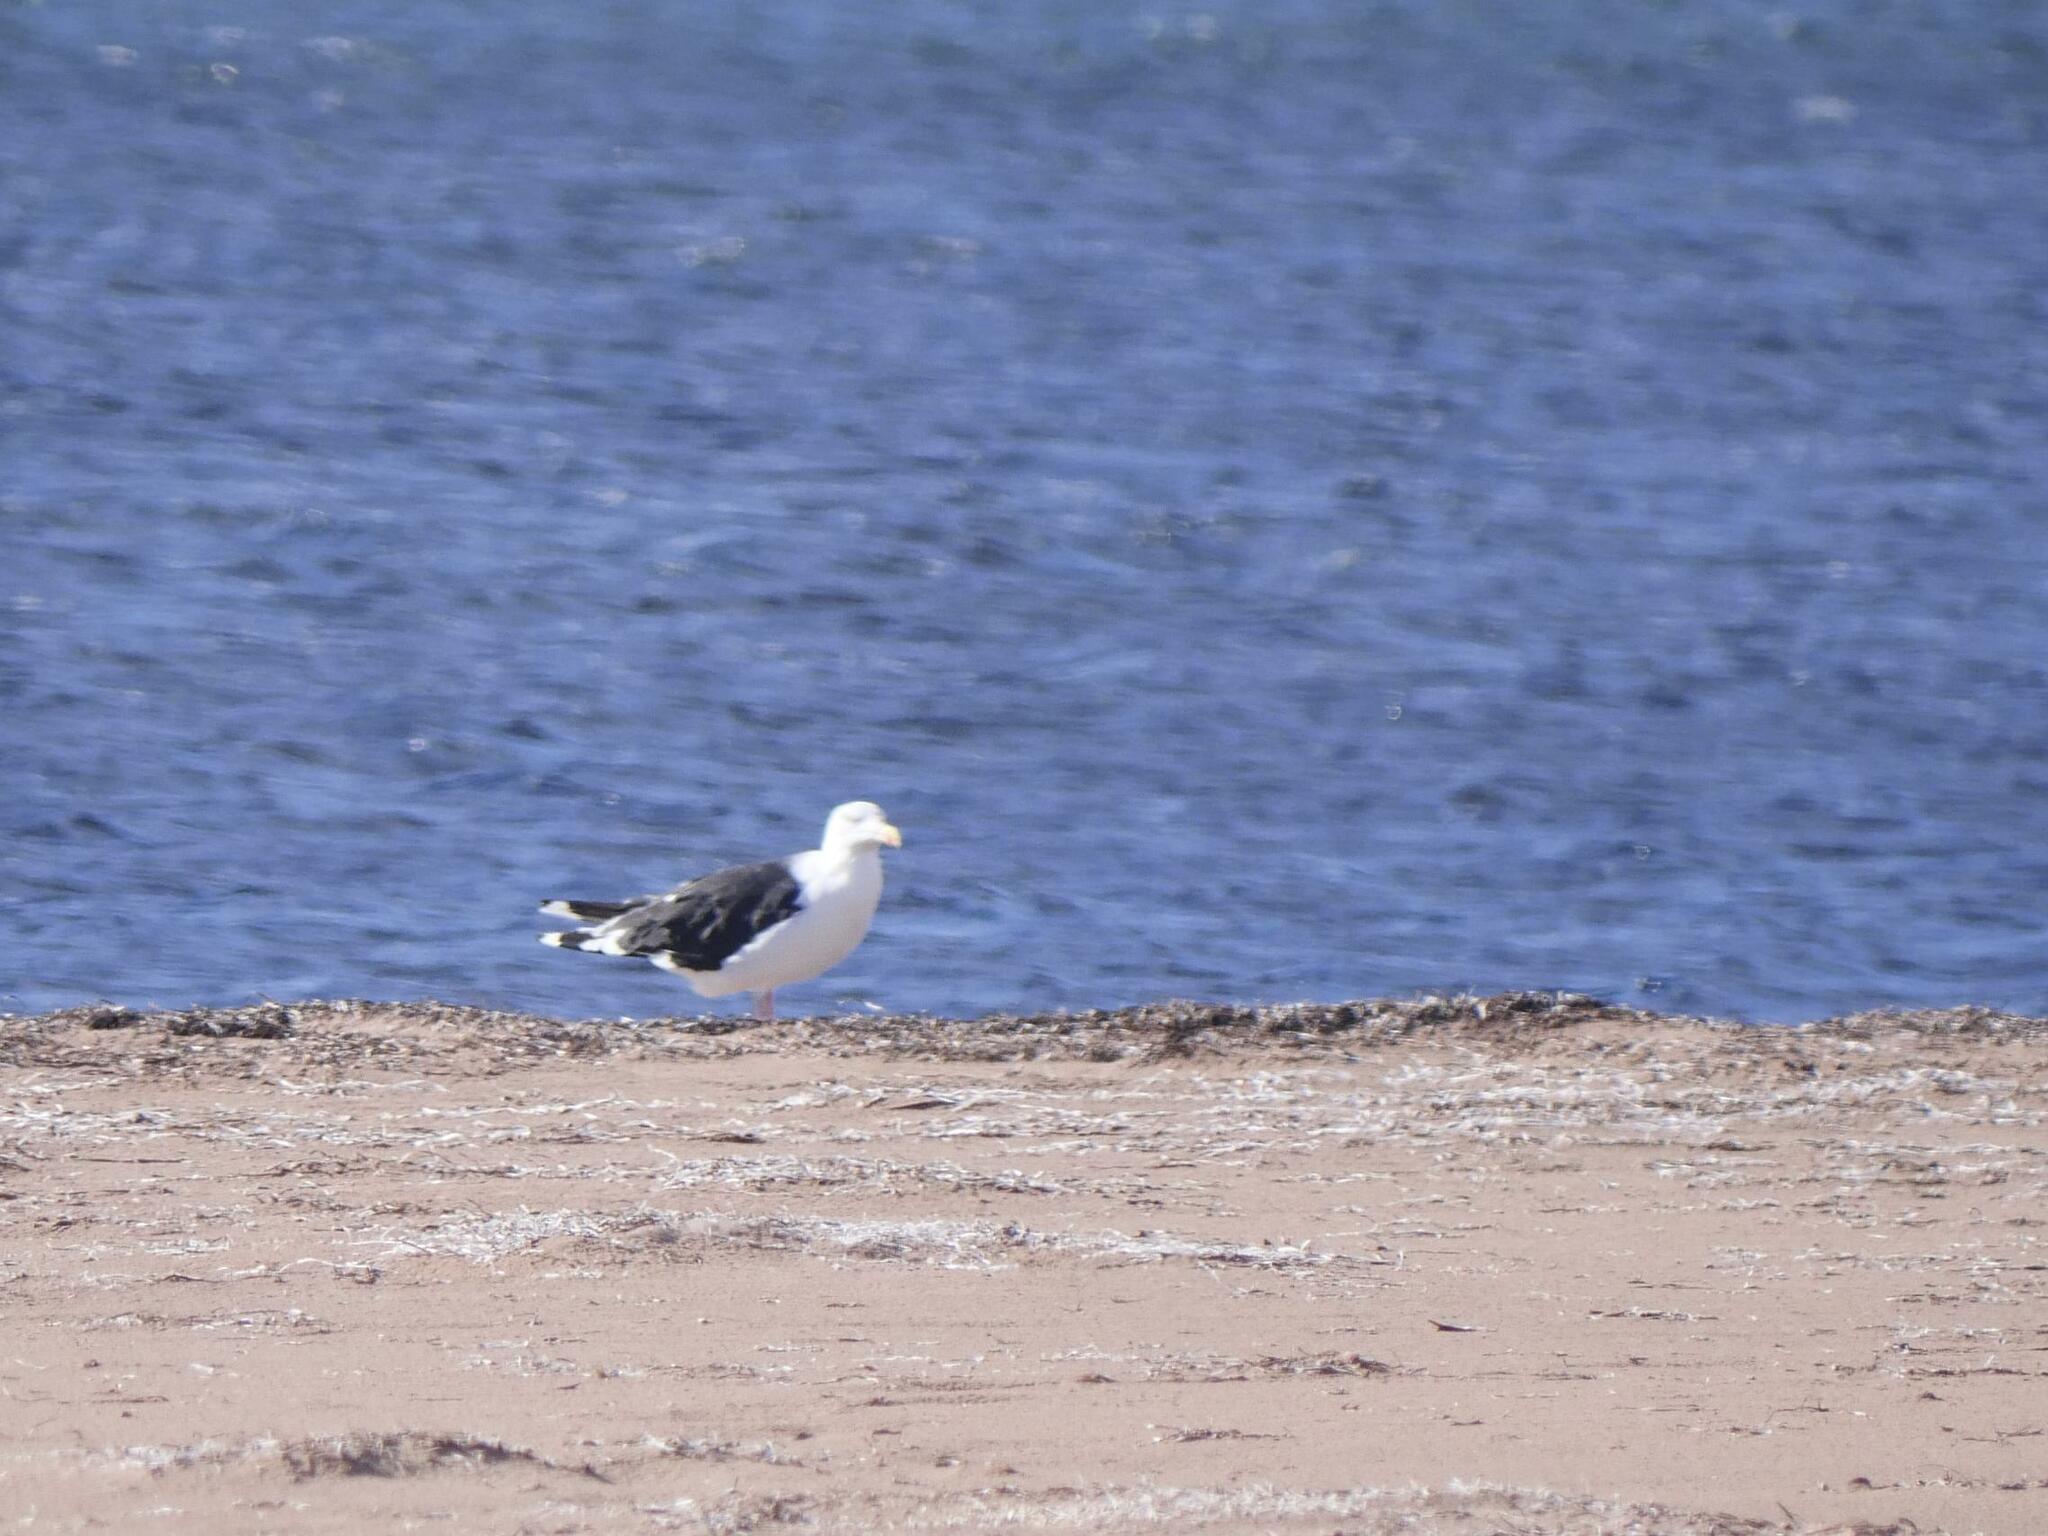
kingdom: Animalia
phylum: Chordata
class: Aves
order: Charadriiformes
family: Laridae
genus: Larus
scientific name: Larus marinus
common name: Great black-backed gull
